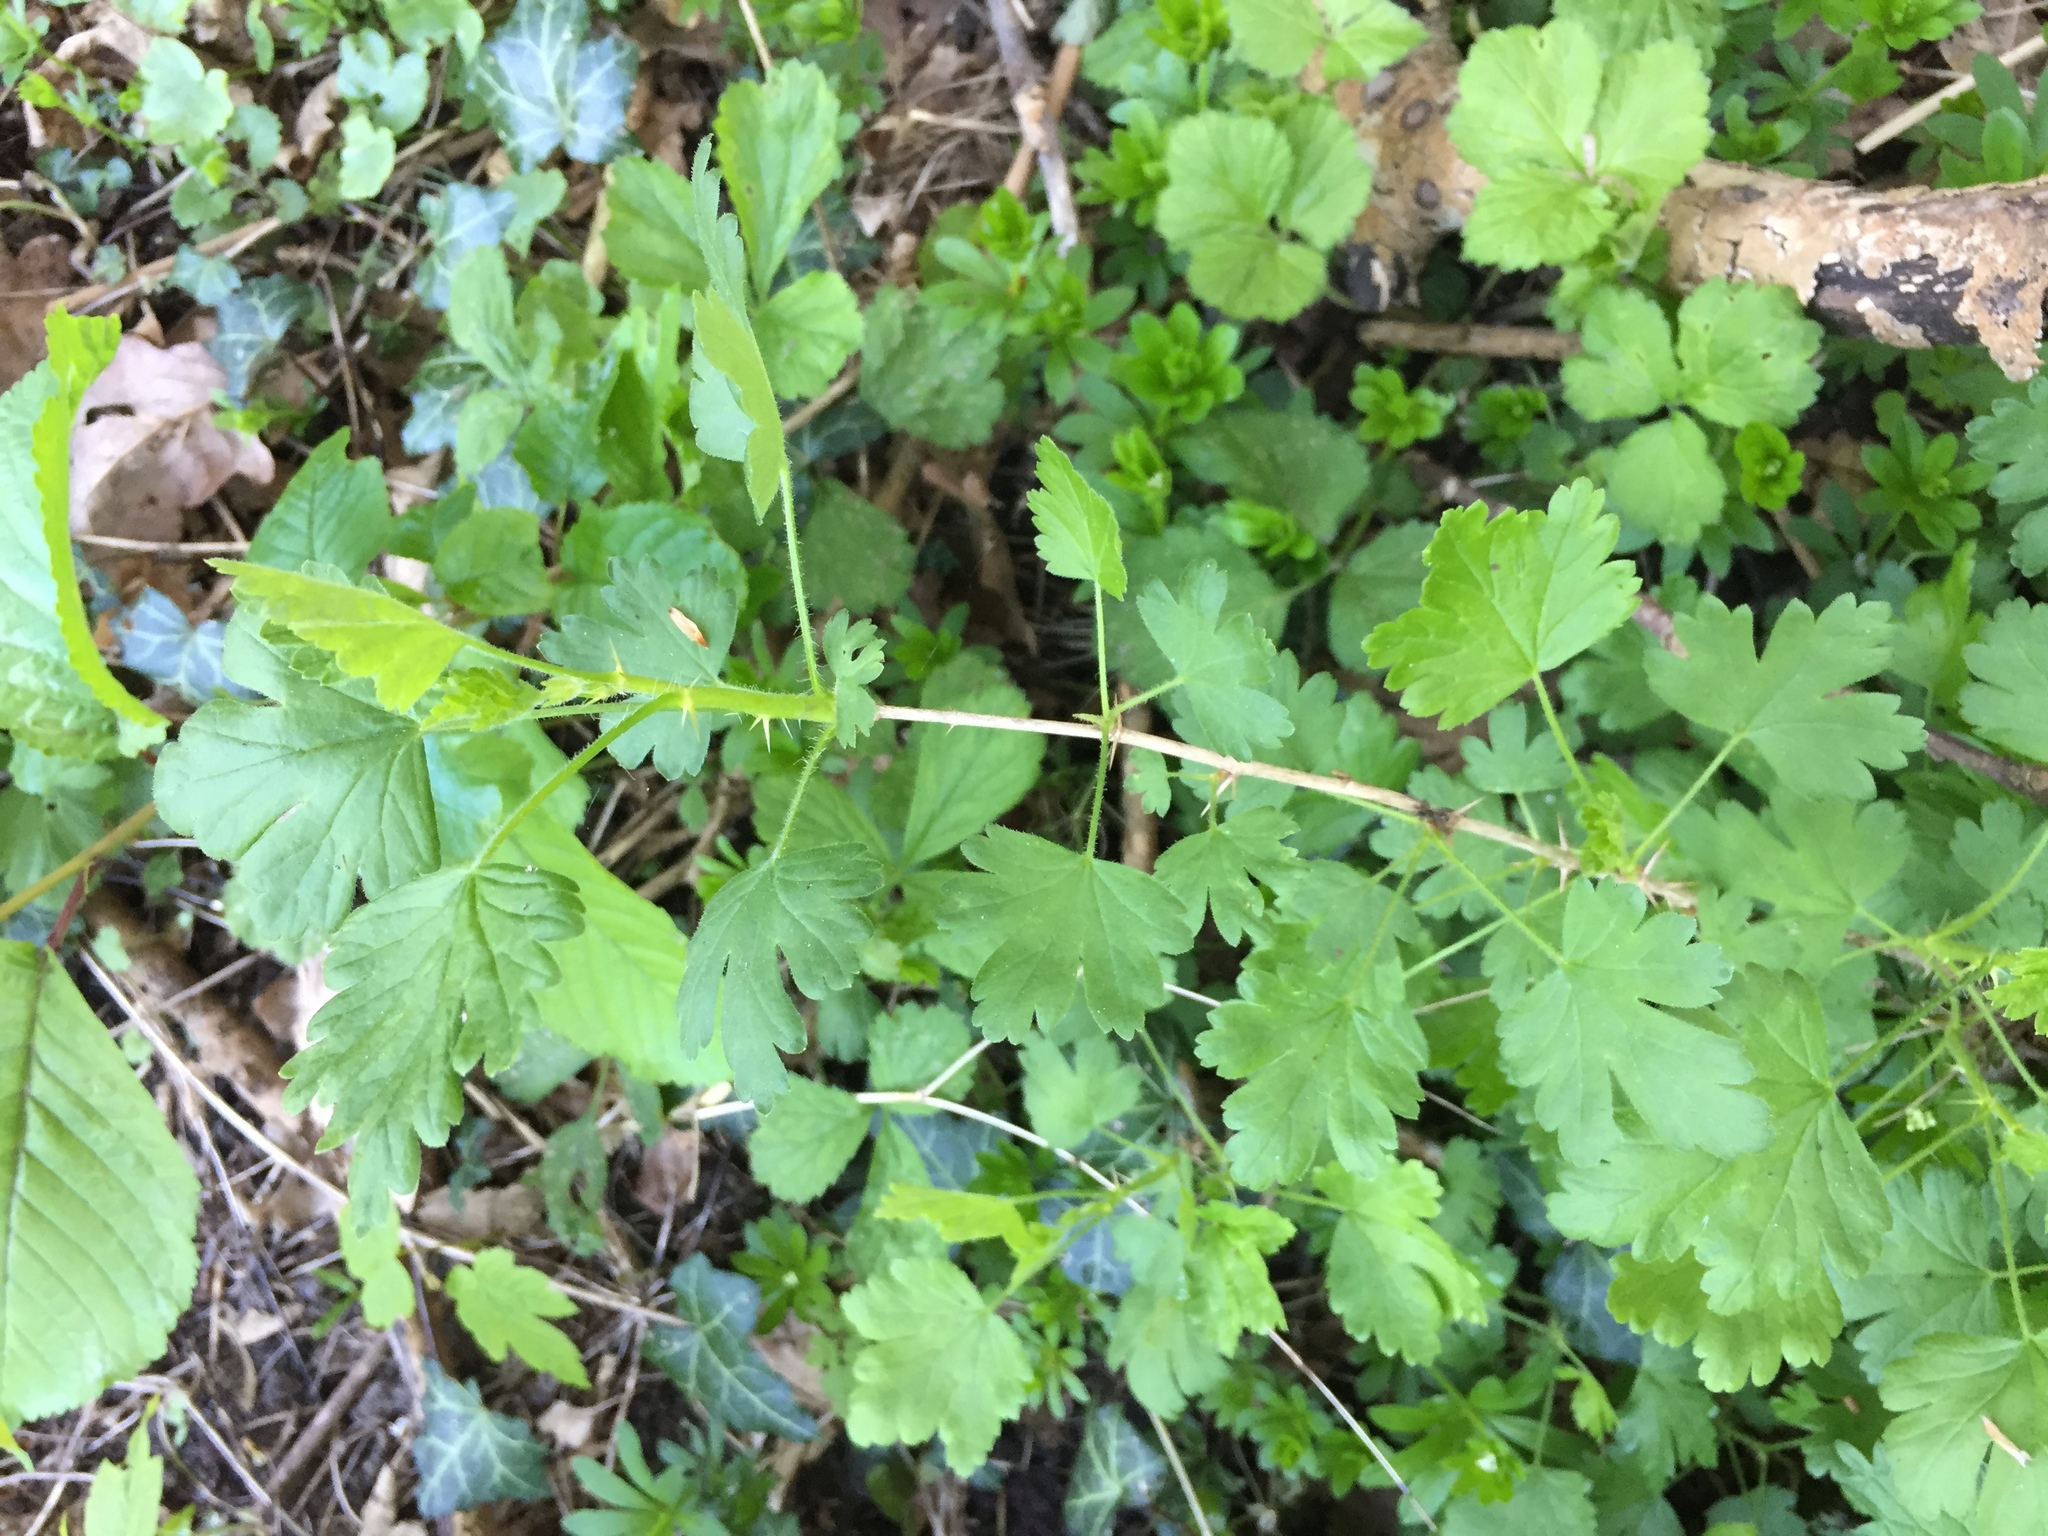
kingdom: Plantae
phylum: Tracheophyta
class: Magnoliopsida
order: Saxifragales
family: Grossulariaceae
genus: Ribes
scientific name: Ribes uva-crispa
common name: Gooseberry
